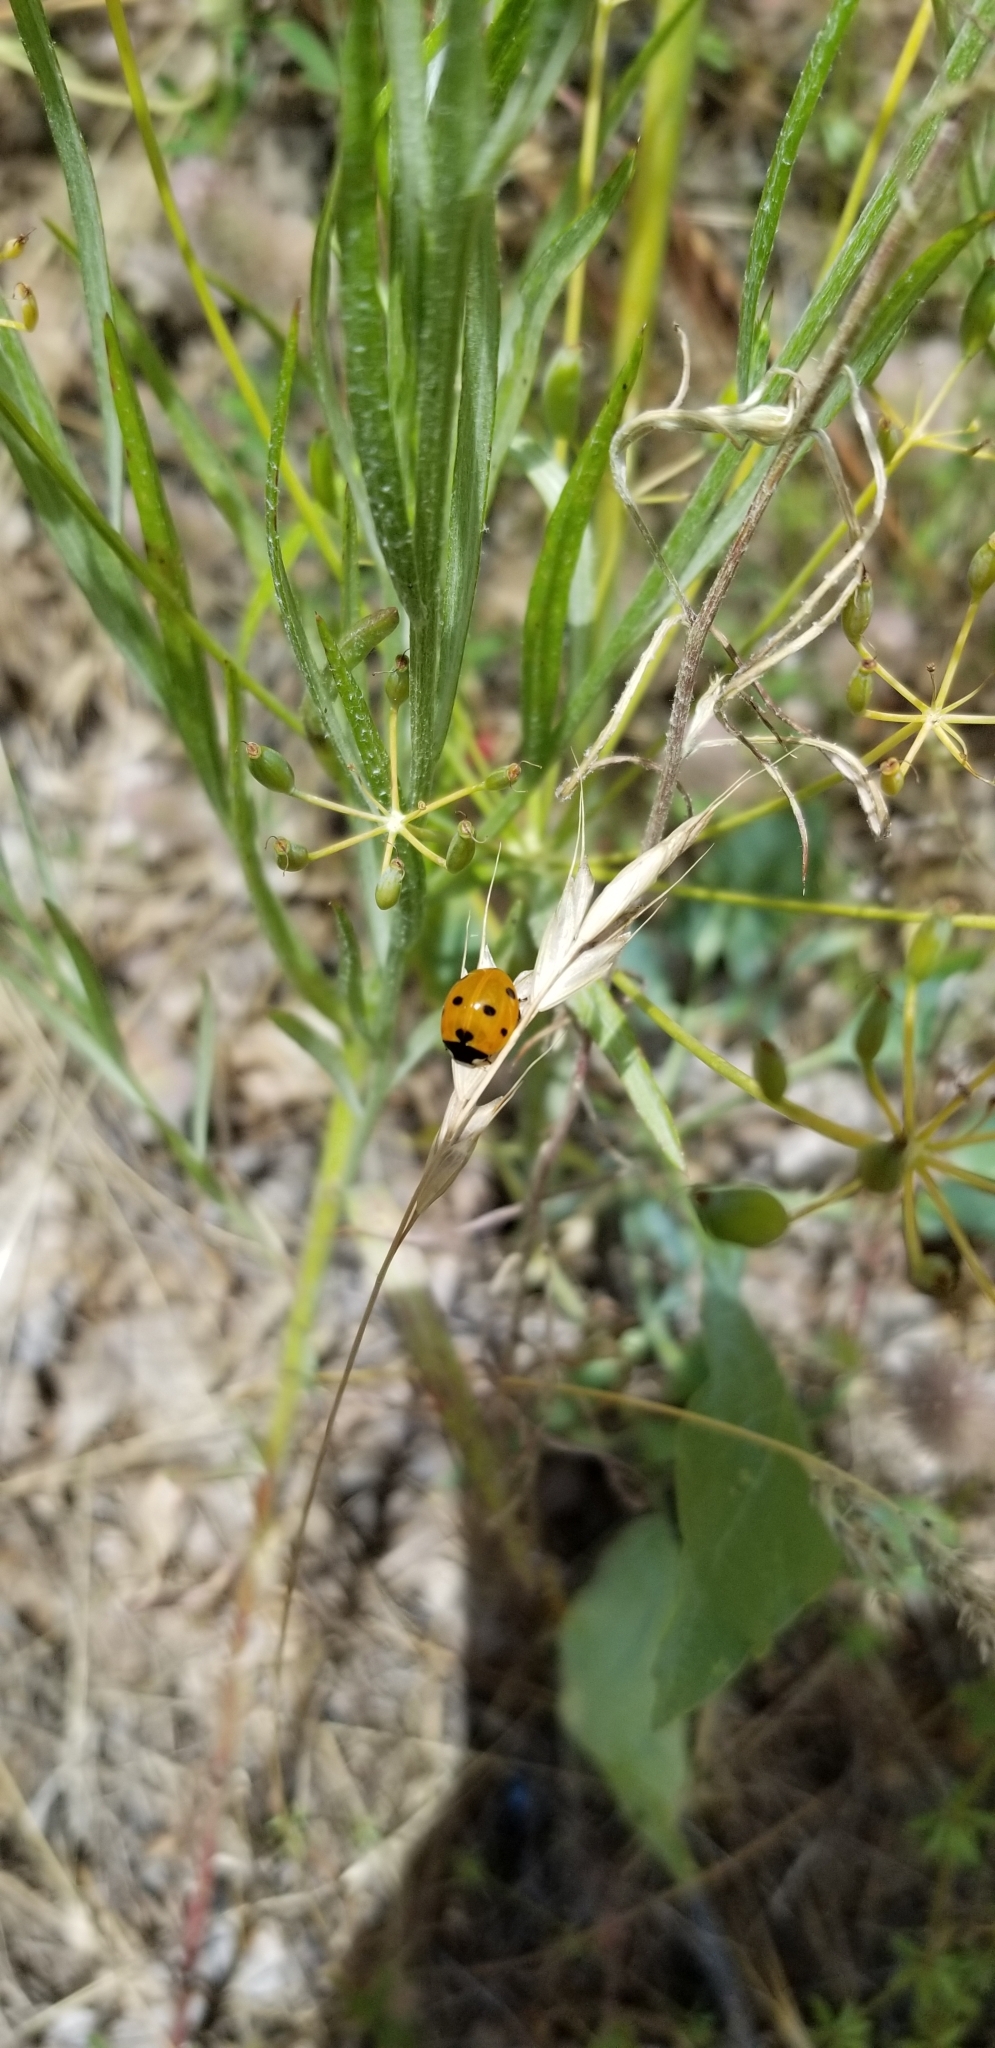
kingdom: Animalia
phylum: Arthropoda
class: Insecta
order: Coleoptera
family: Coccinellidae
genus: Coccinella
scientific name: Coccinella septempunctata
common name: Sevenspotted lady beetle
